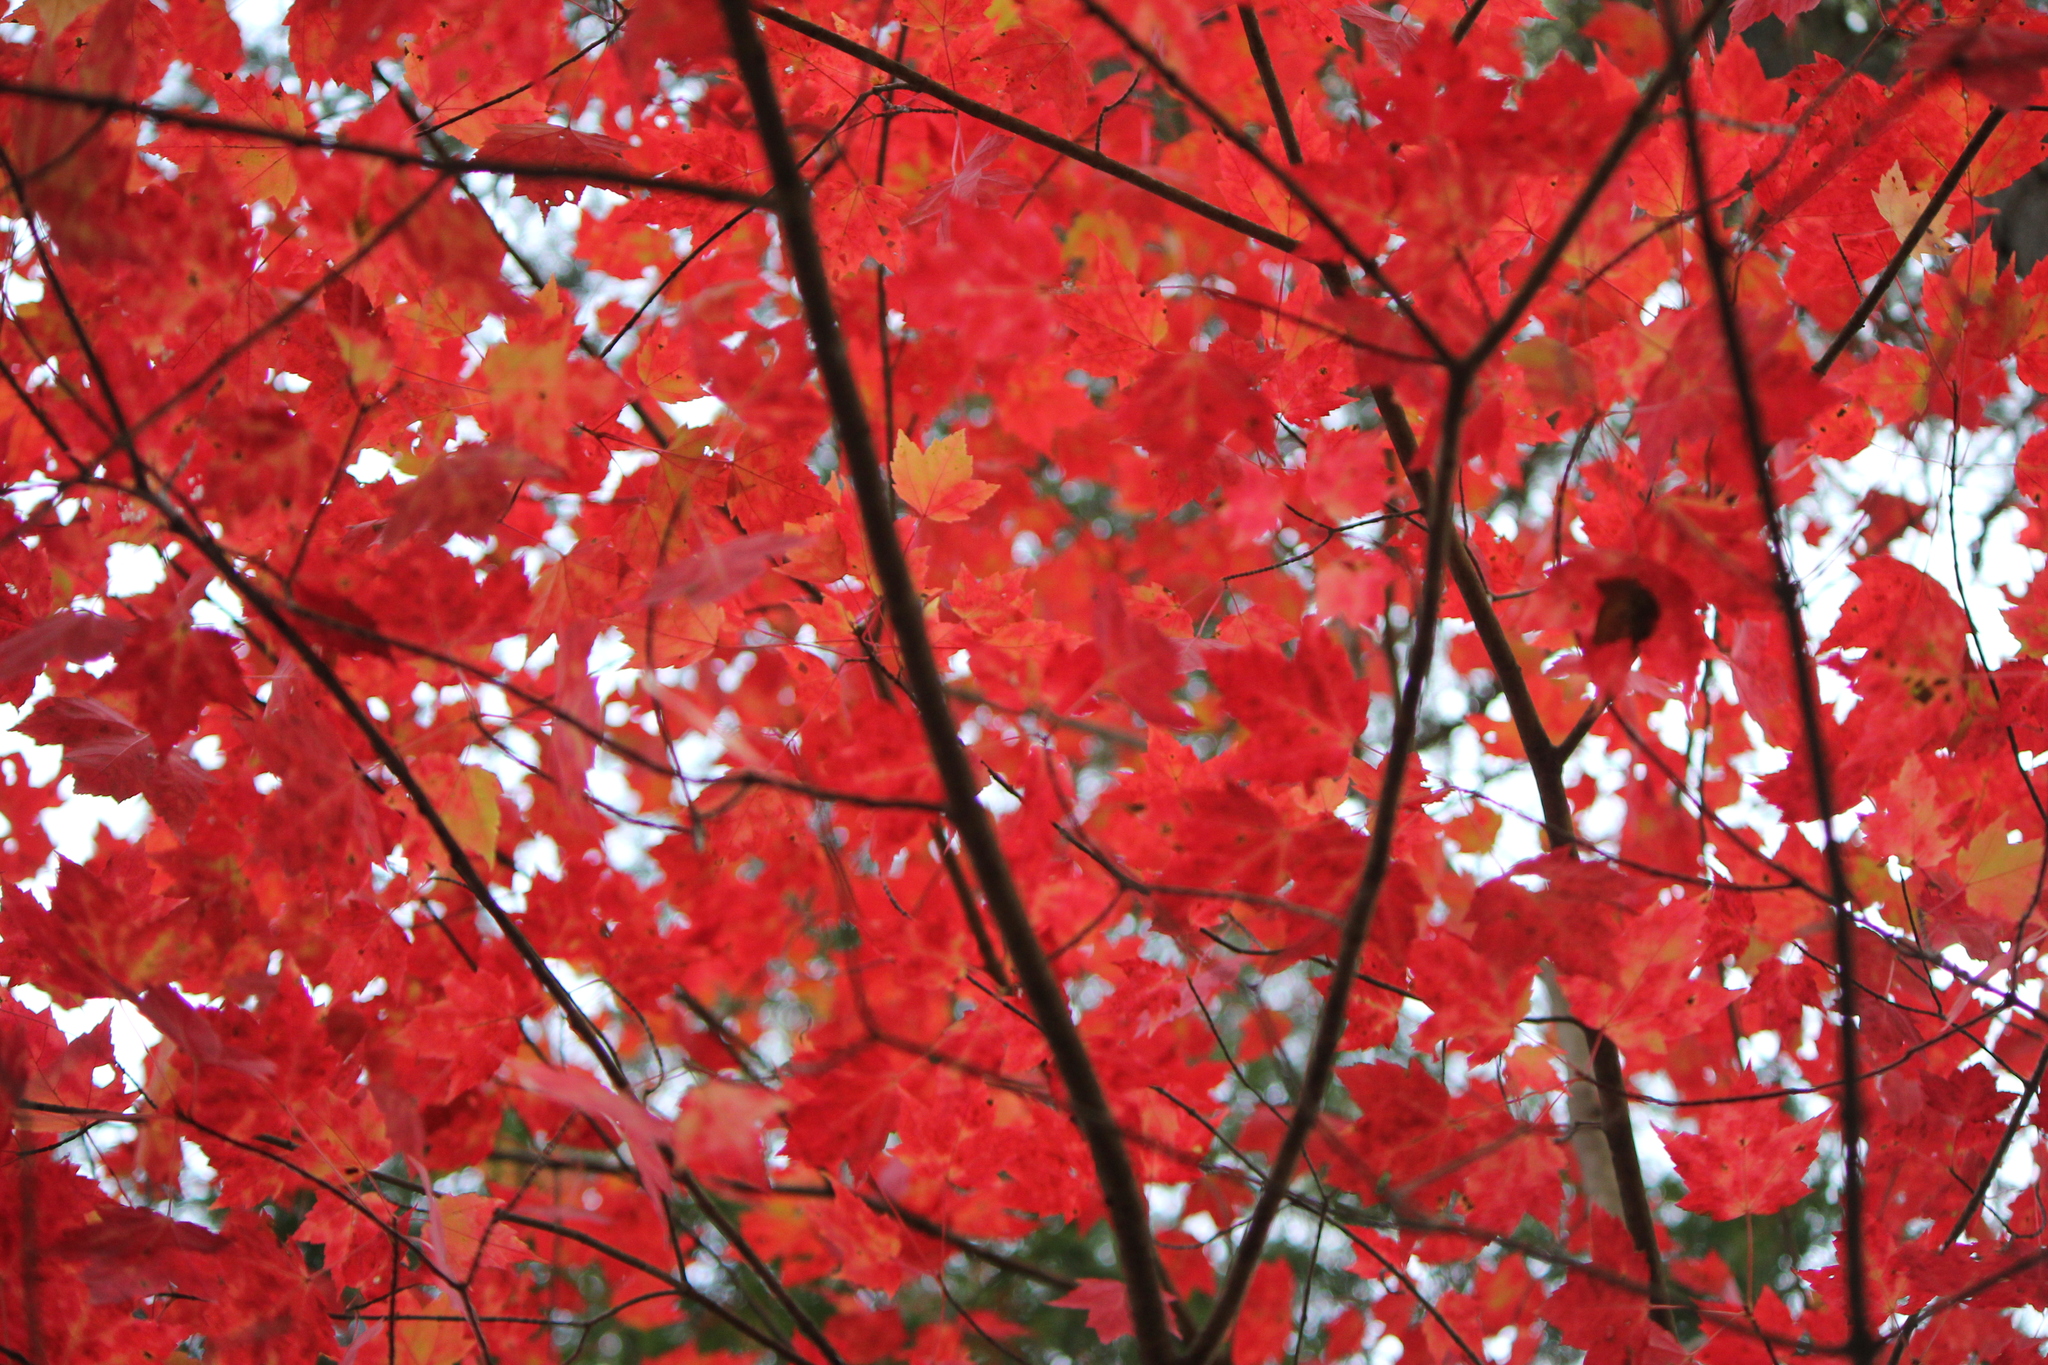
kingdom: Plantae
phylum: Tracheophyta
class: Magnoliopsida
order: Sapindales
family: Sapindaceae
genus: Acer
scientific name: Acer rubrum
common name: Red maple
